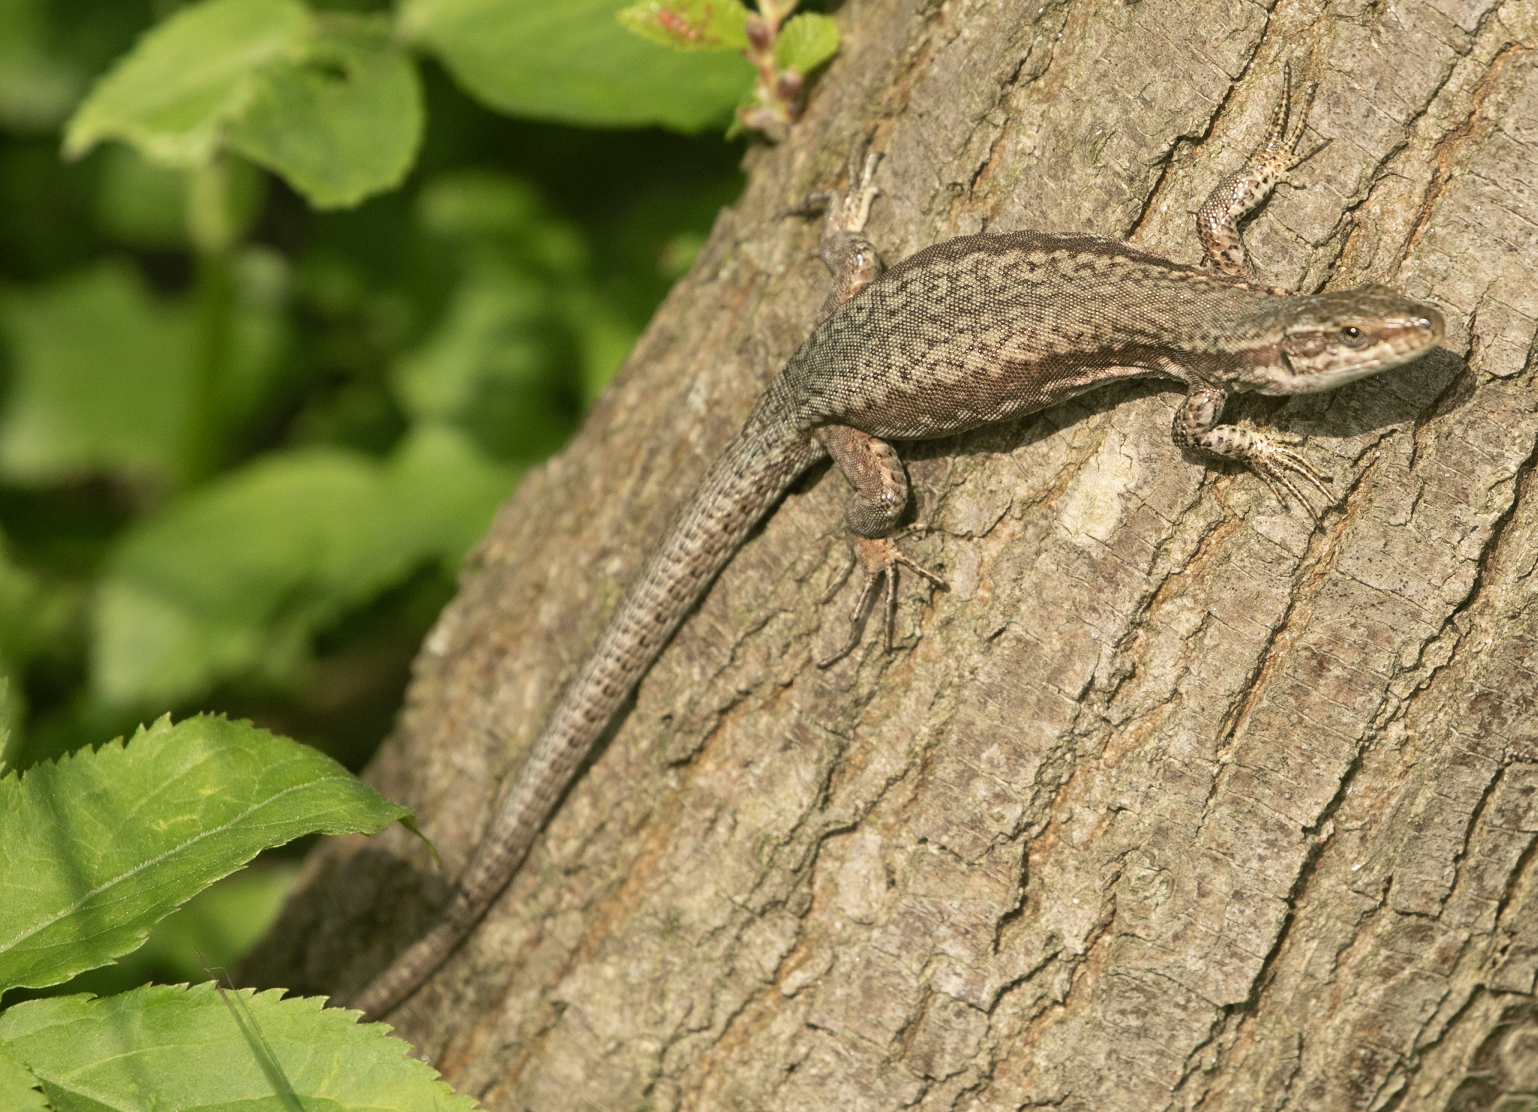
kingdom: Animalia
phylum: Chordata
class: Squamata
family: Lacertidae
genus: Podarcis
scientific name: Podarcis muralis
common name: Common wall lizard
